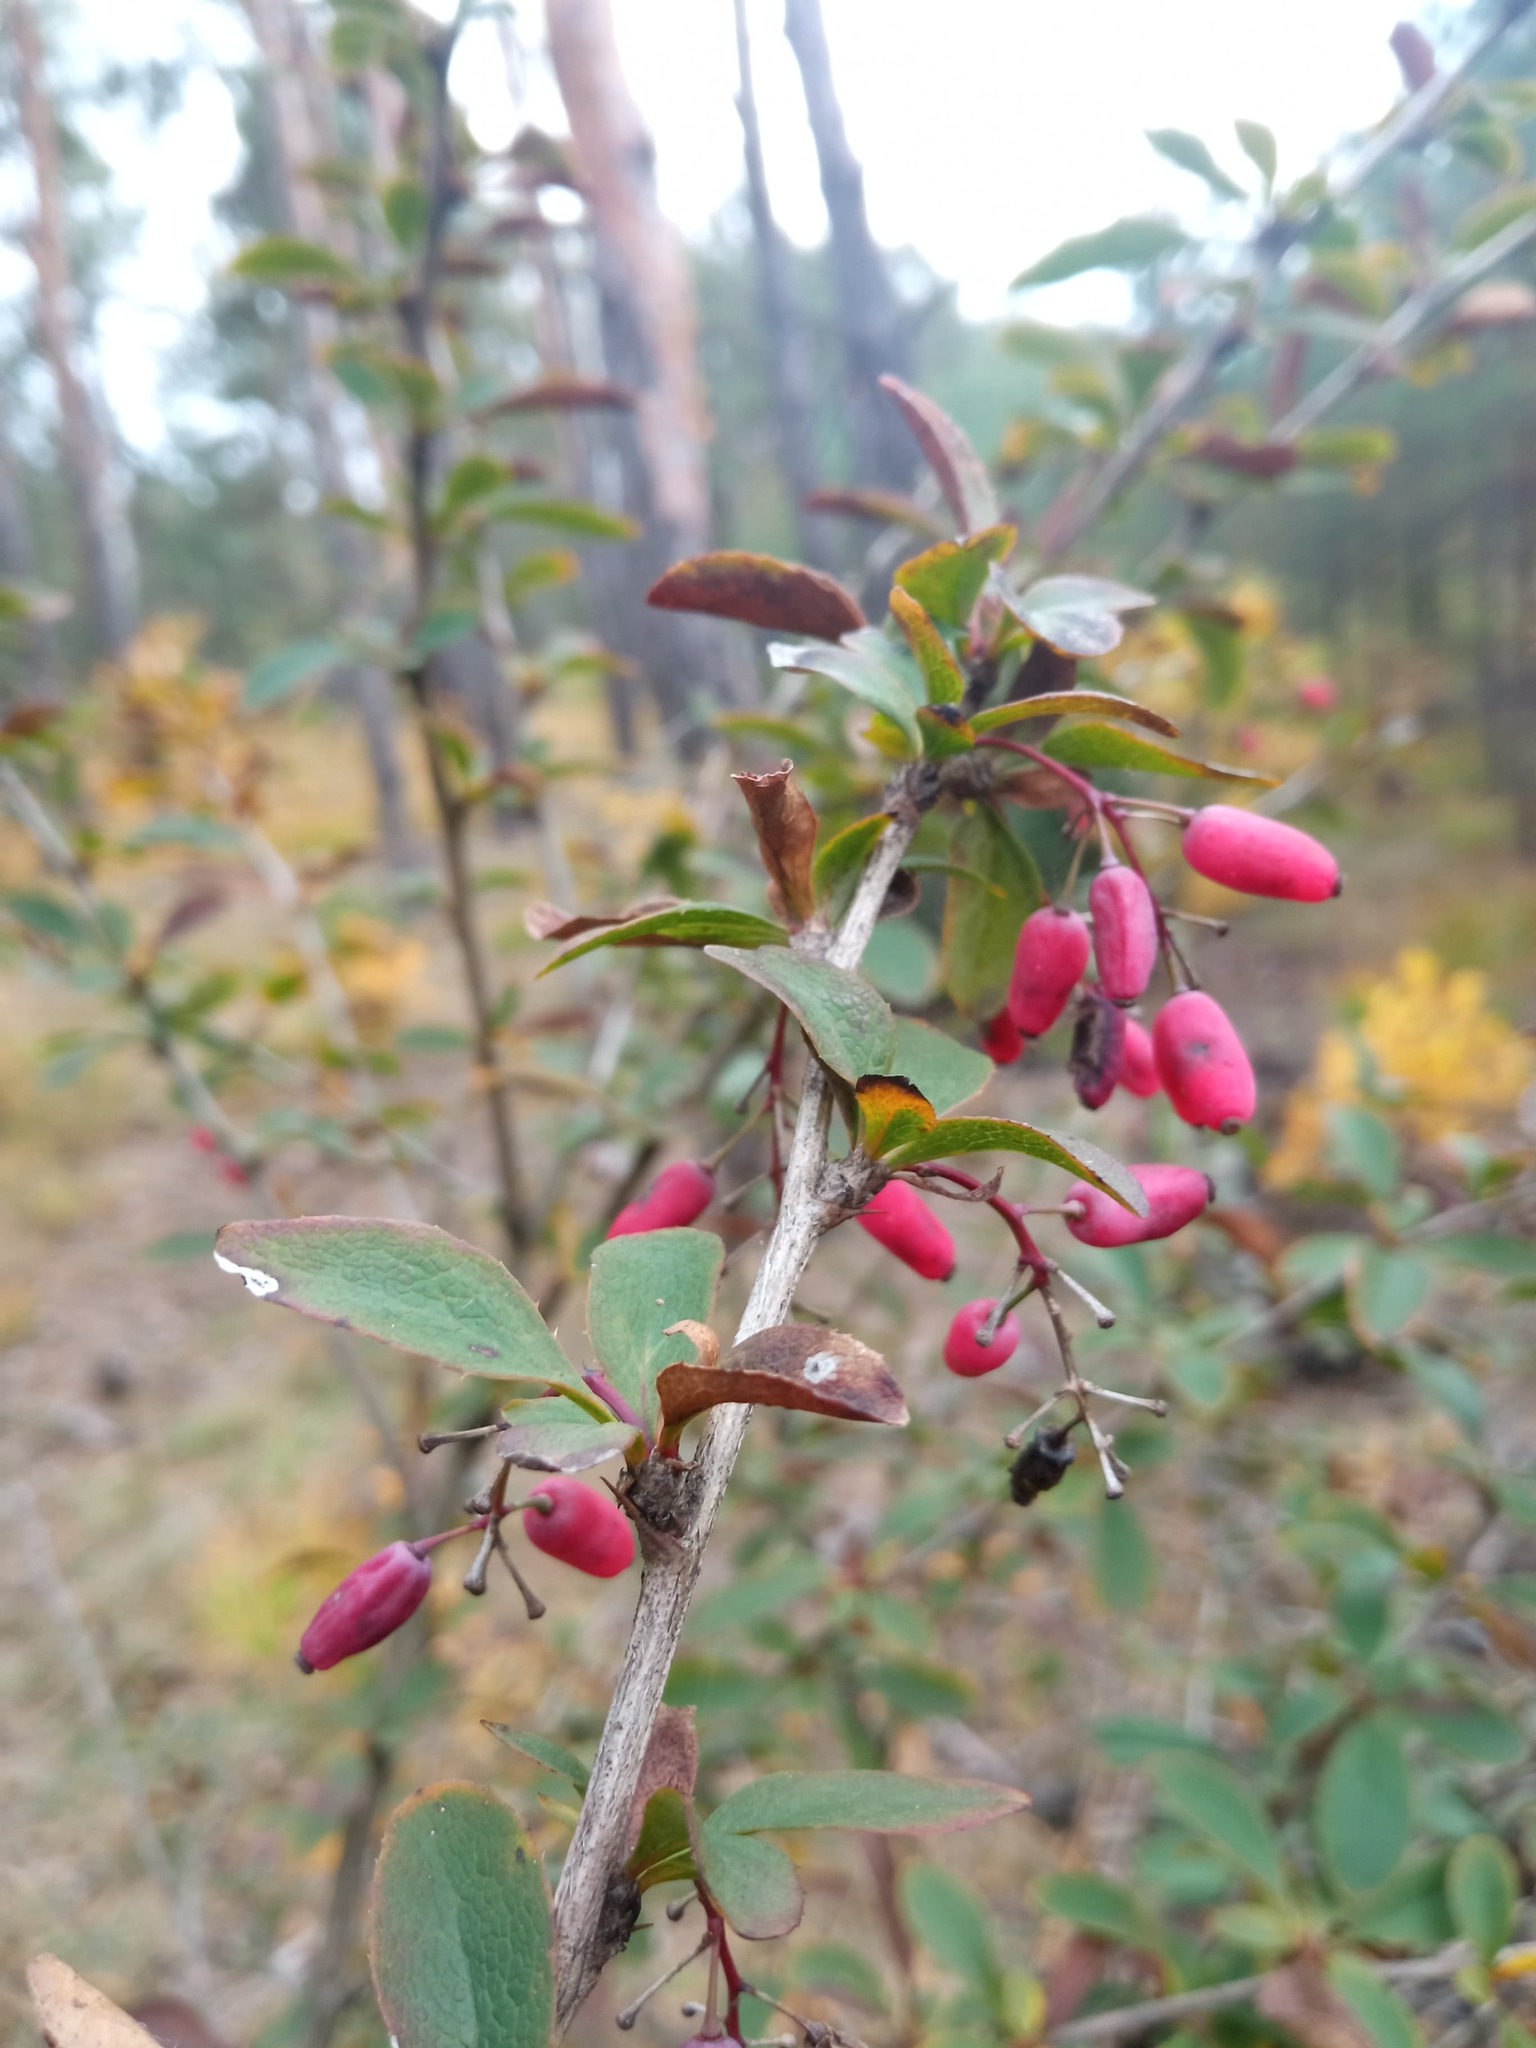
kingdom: Plantae
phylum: Tracheophyta
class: Magnoliopsida
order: Ranunculales
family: Berberidaceae
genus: Berberis
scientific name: Berberis vulgaris
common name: Barberry
